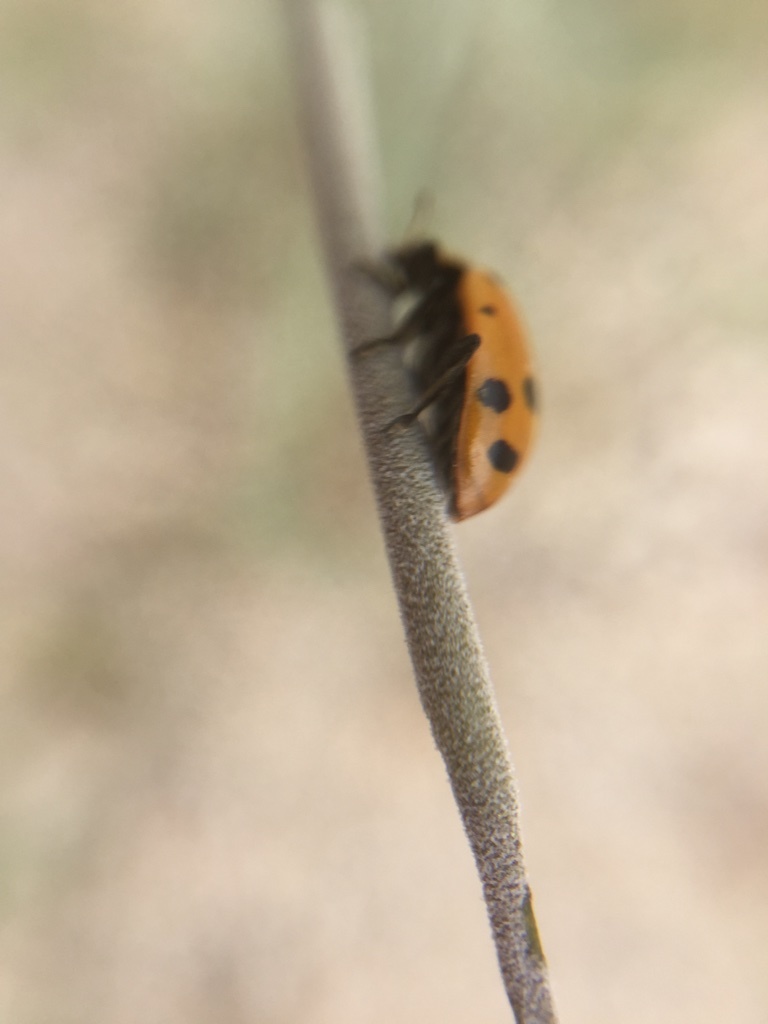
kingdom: Animalia
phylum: Arthropoda
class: Insecta
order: Coleoptera
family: Coccinellidae
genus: Hippodamia
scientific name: Hippodamia convergens
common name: Convergent lady beetle
